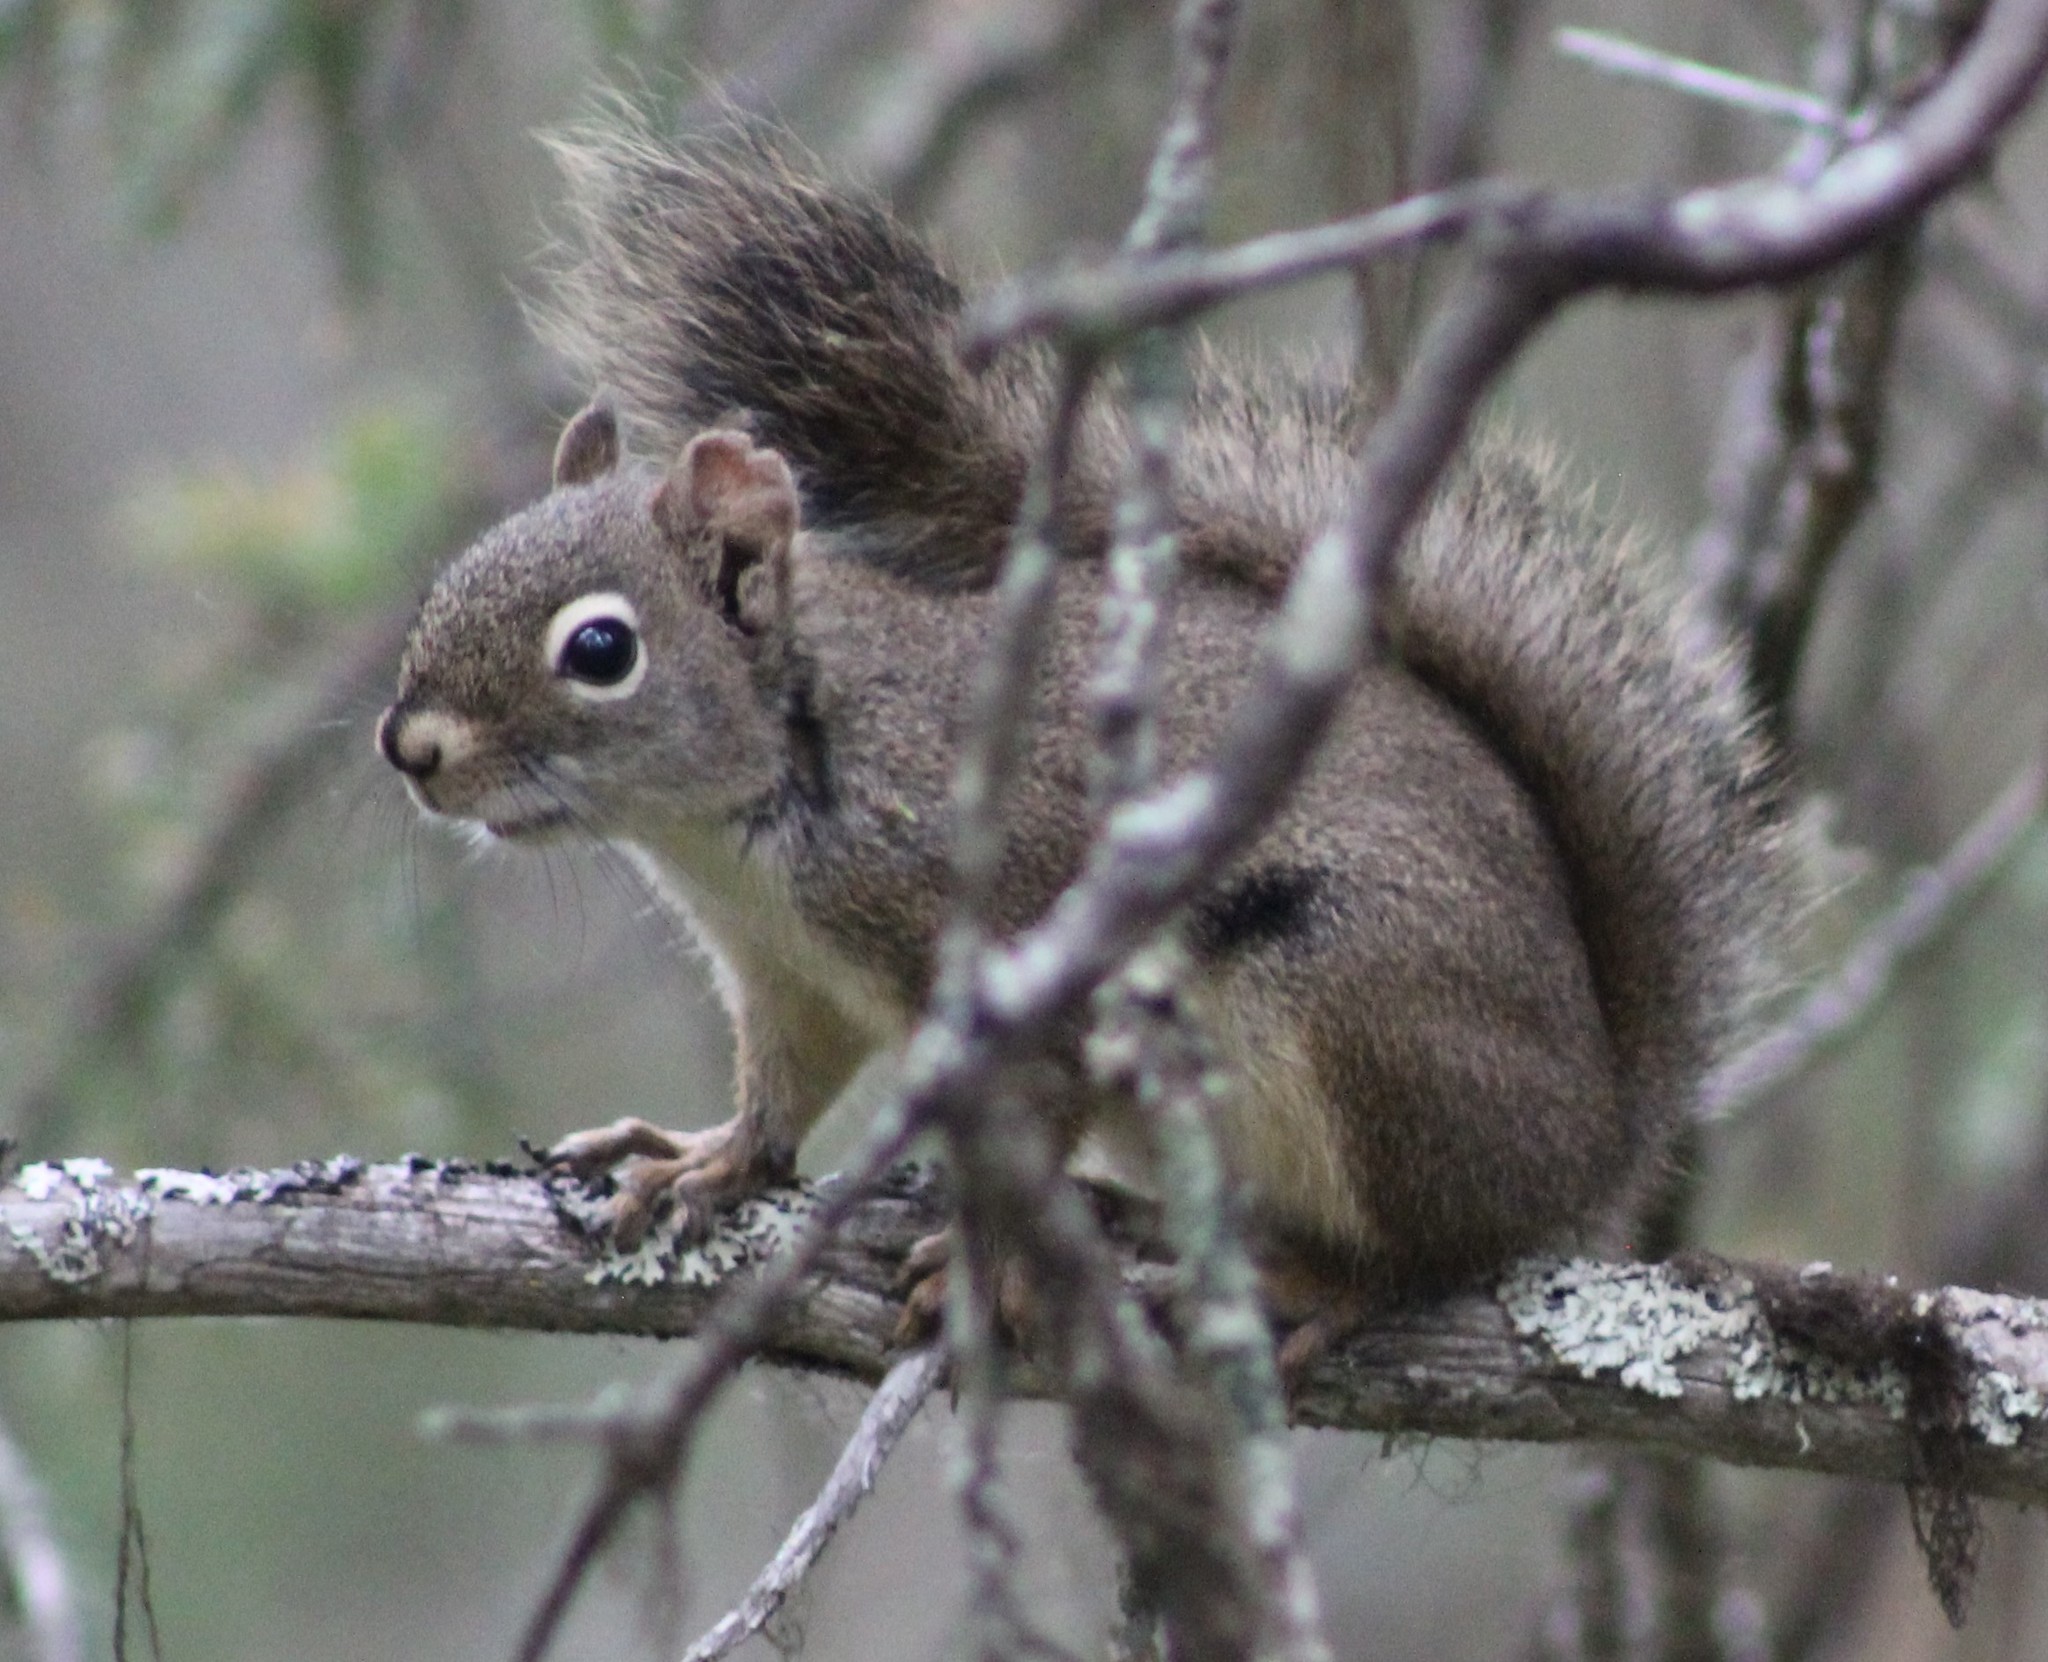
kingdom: Animalia
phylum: Chordata
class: Mammalia
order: Rodentia
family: Sciuridae
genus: Tamiasciurus
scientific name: Tamiasciurus hudsonicus
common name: Red squirrel
